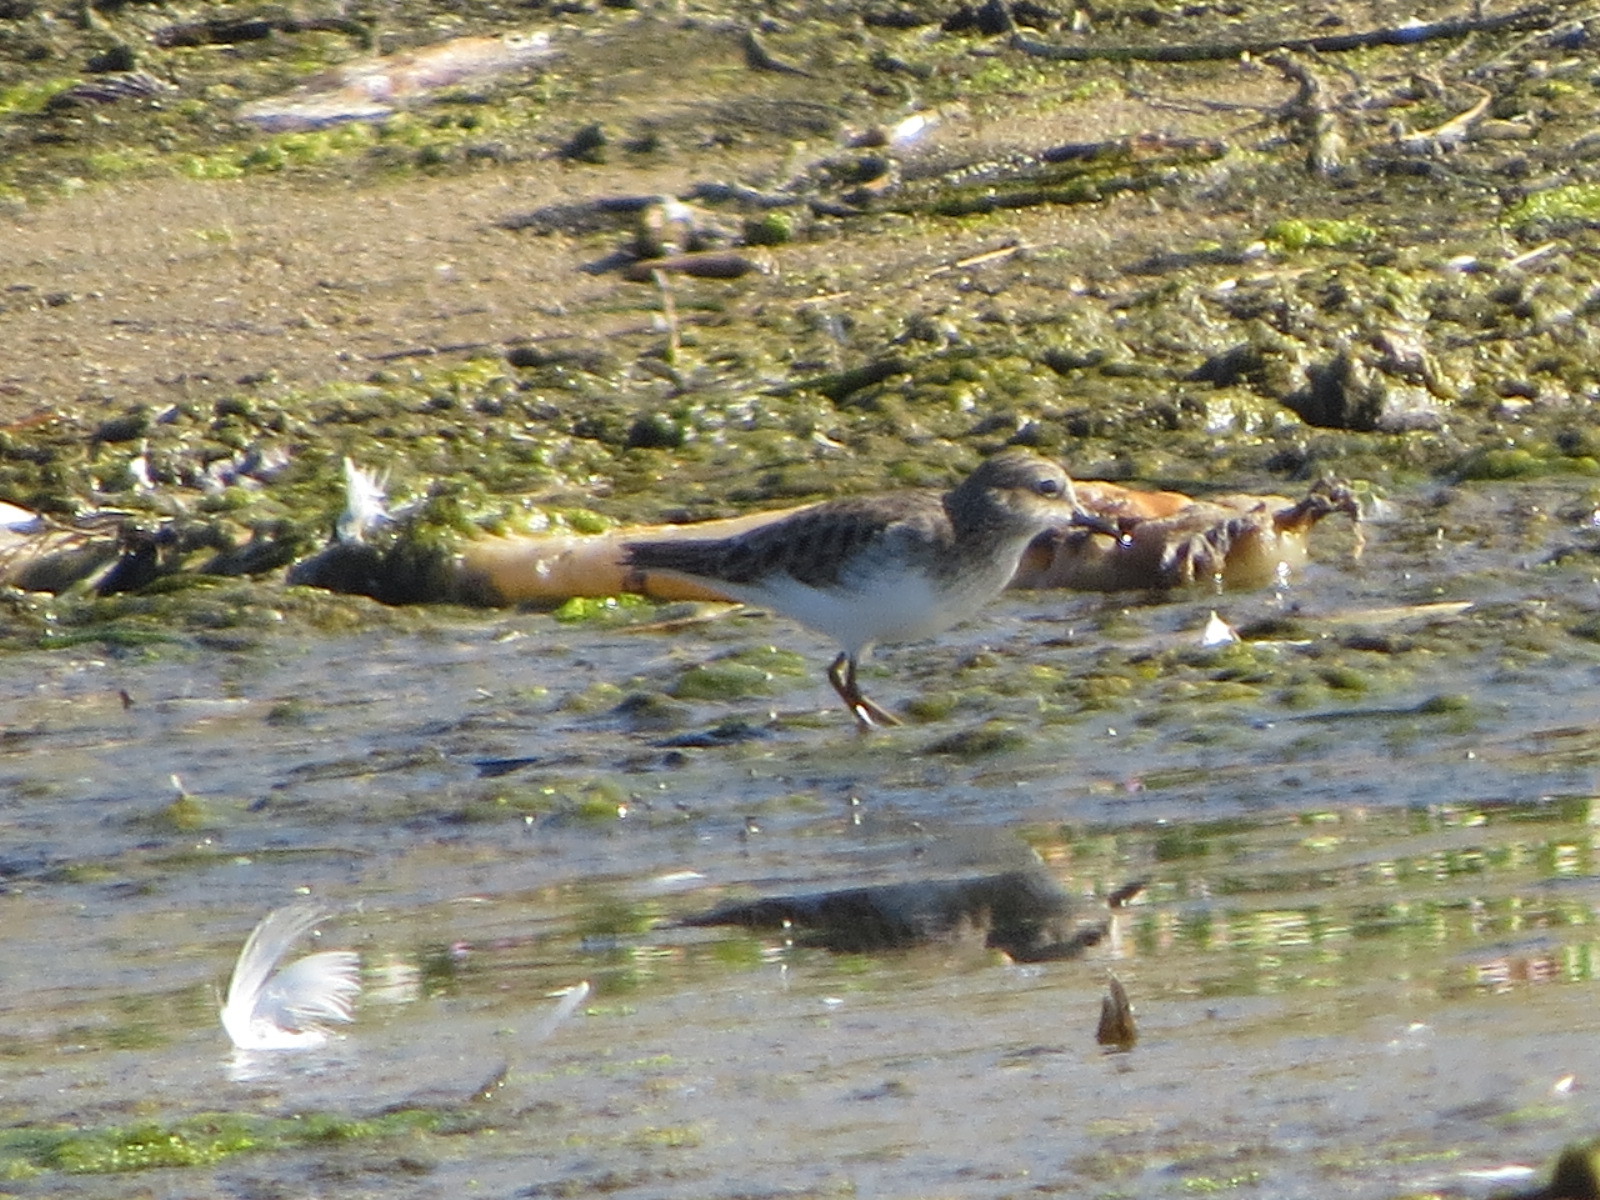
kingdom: Animalia
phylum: Chordata
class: Aves
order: Charadriiformes
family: Scolopacidae
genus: Calidris
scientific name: Calidris minutilla
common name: Least sandpiper
